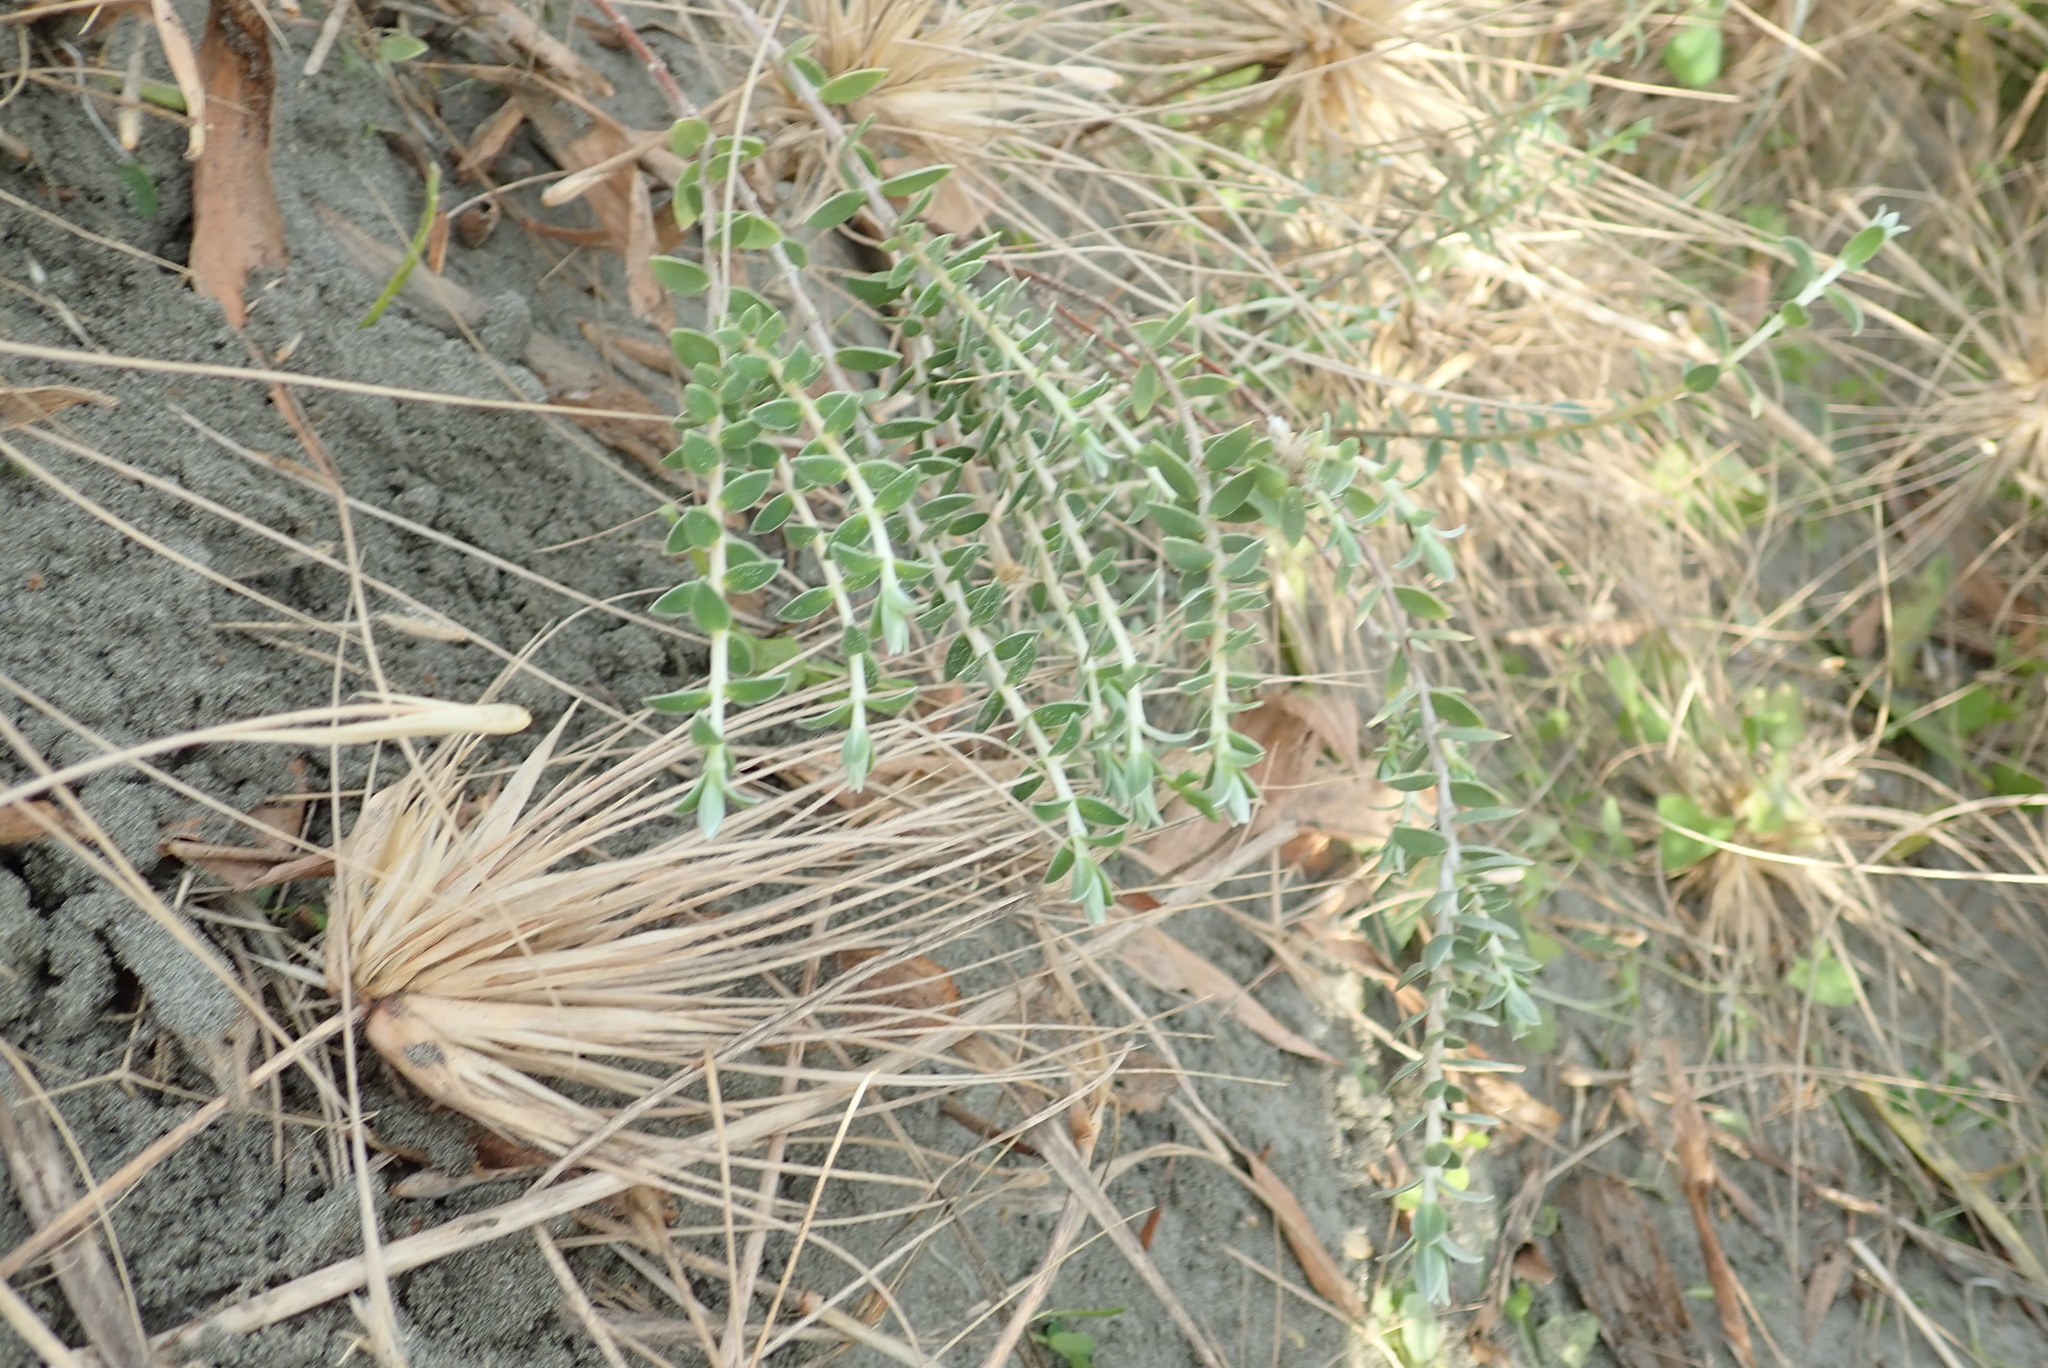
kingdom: Plantae
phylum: Tracheophyta
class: Magnoliopsida
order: Fabales
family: Fabaceae
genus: Acacia
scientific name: Acacia longifolia
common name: Sydney golden wattle
